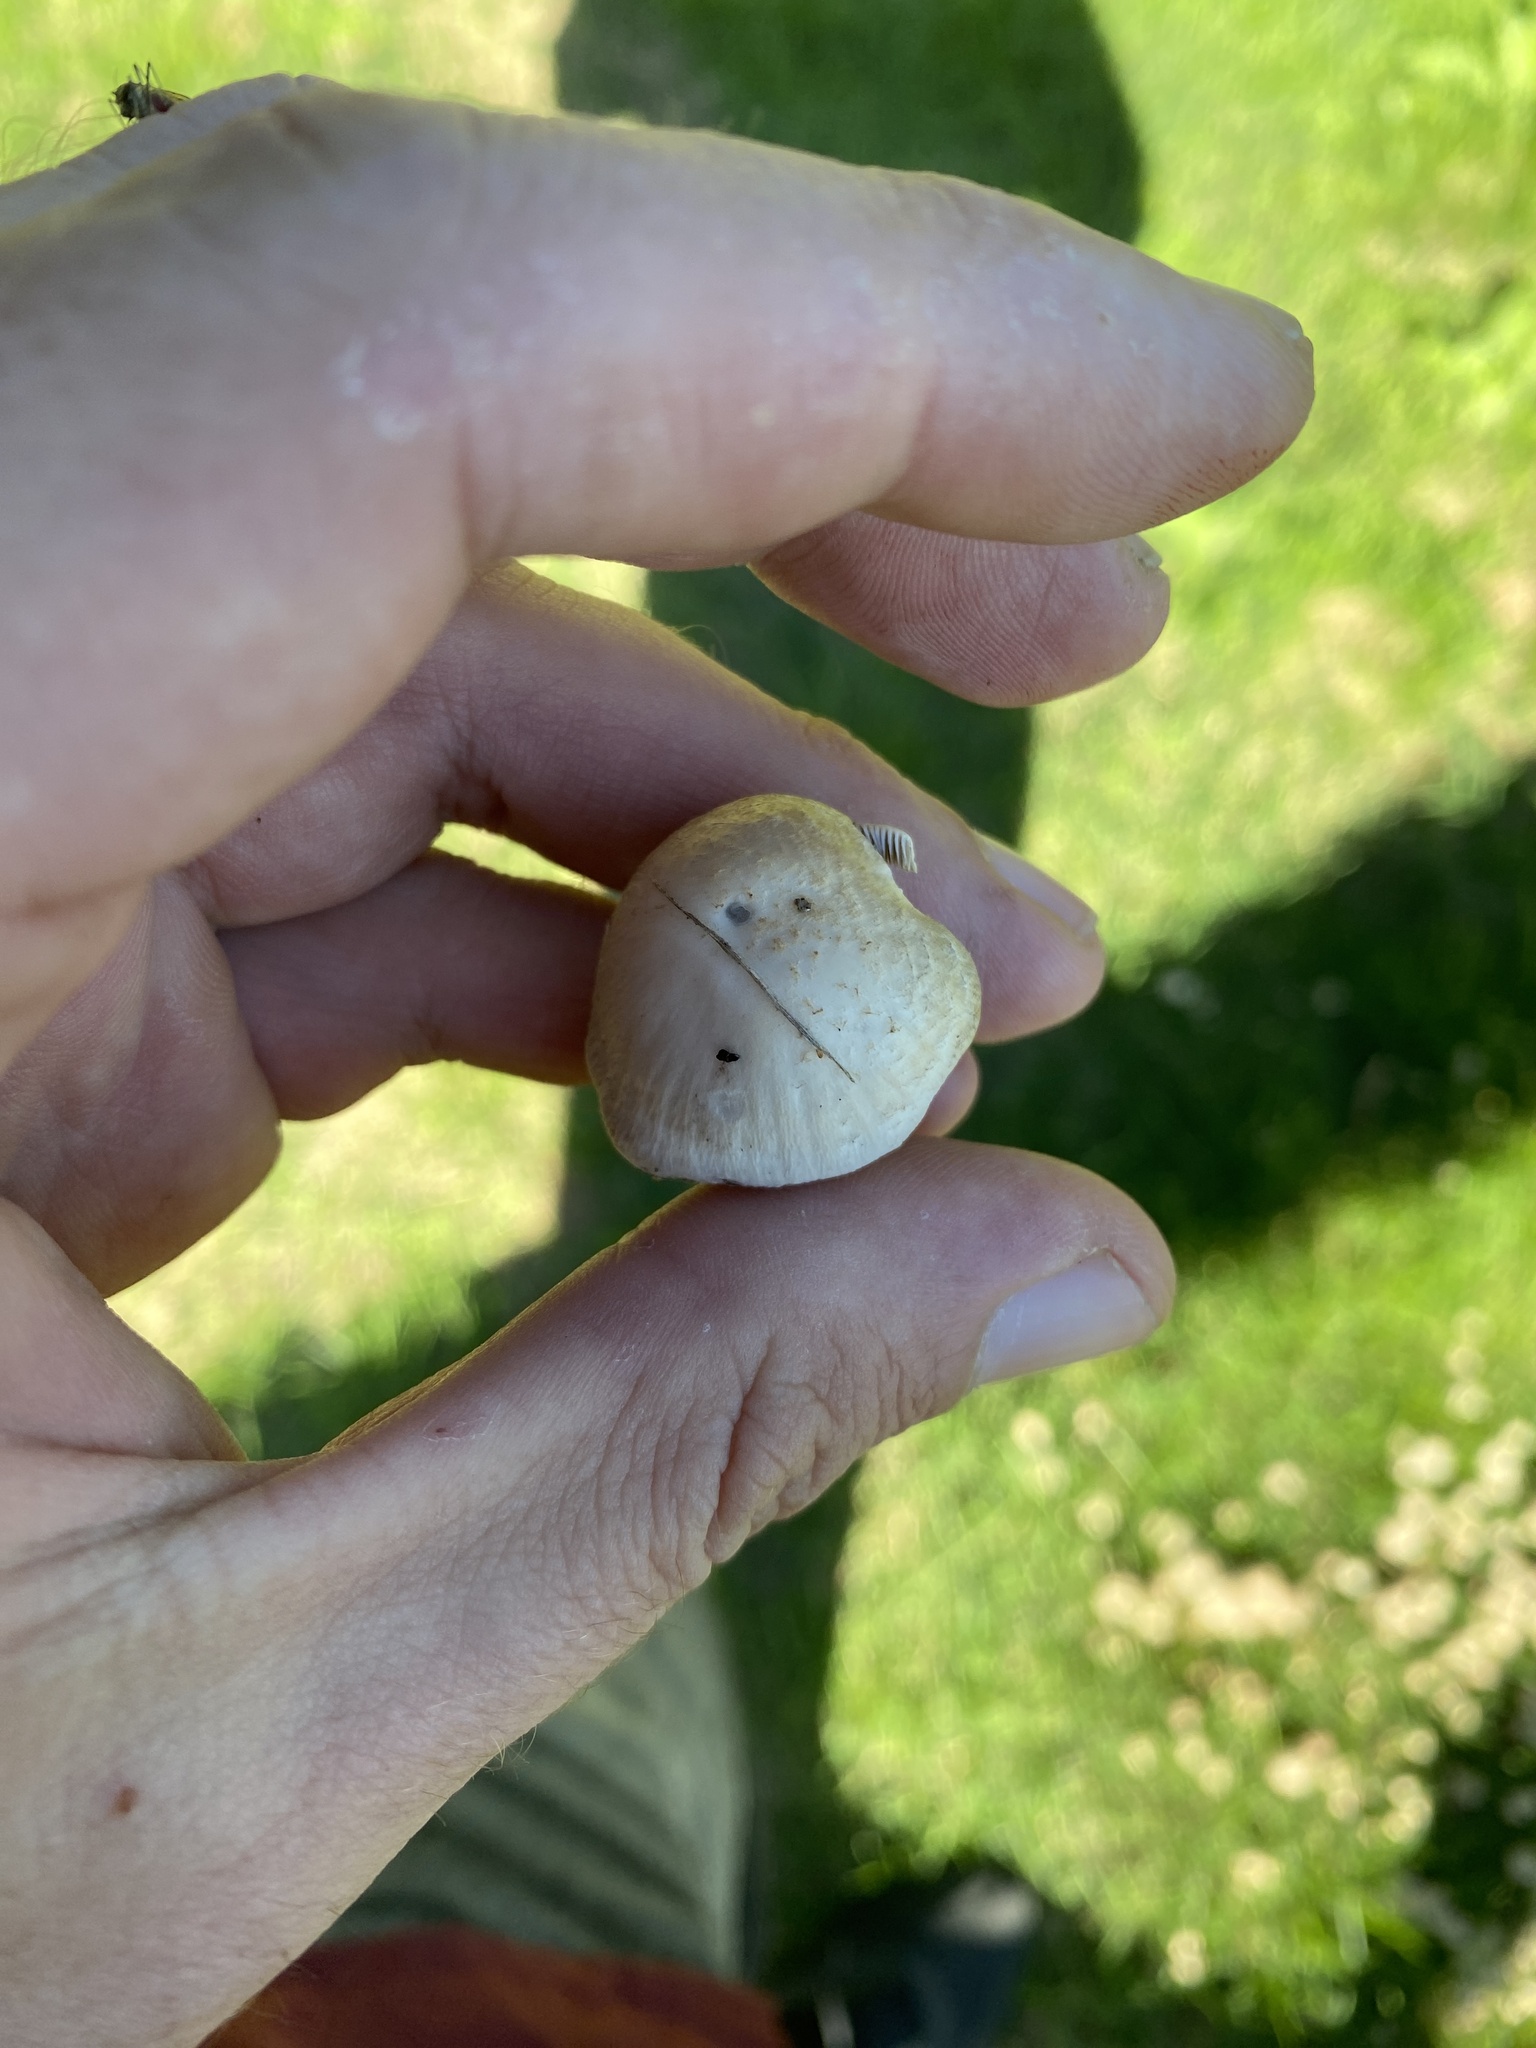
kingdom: Fungi
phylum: Basidiomycota
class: Agaricomycetes
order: Agaricales
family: Psathyrellaceae
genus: Candolleomyces
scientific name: Candolleomyces candolleanus
